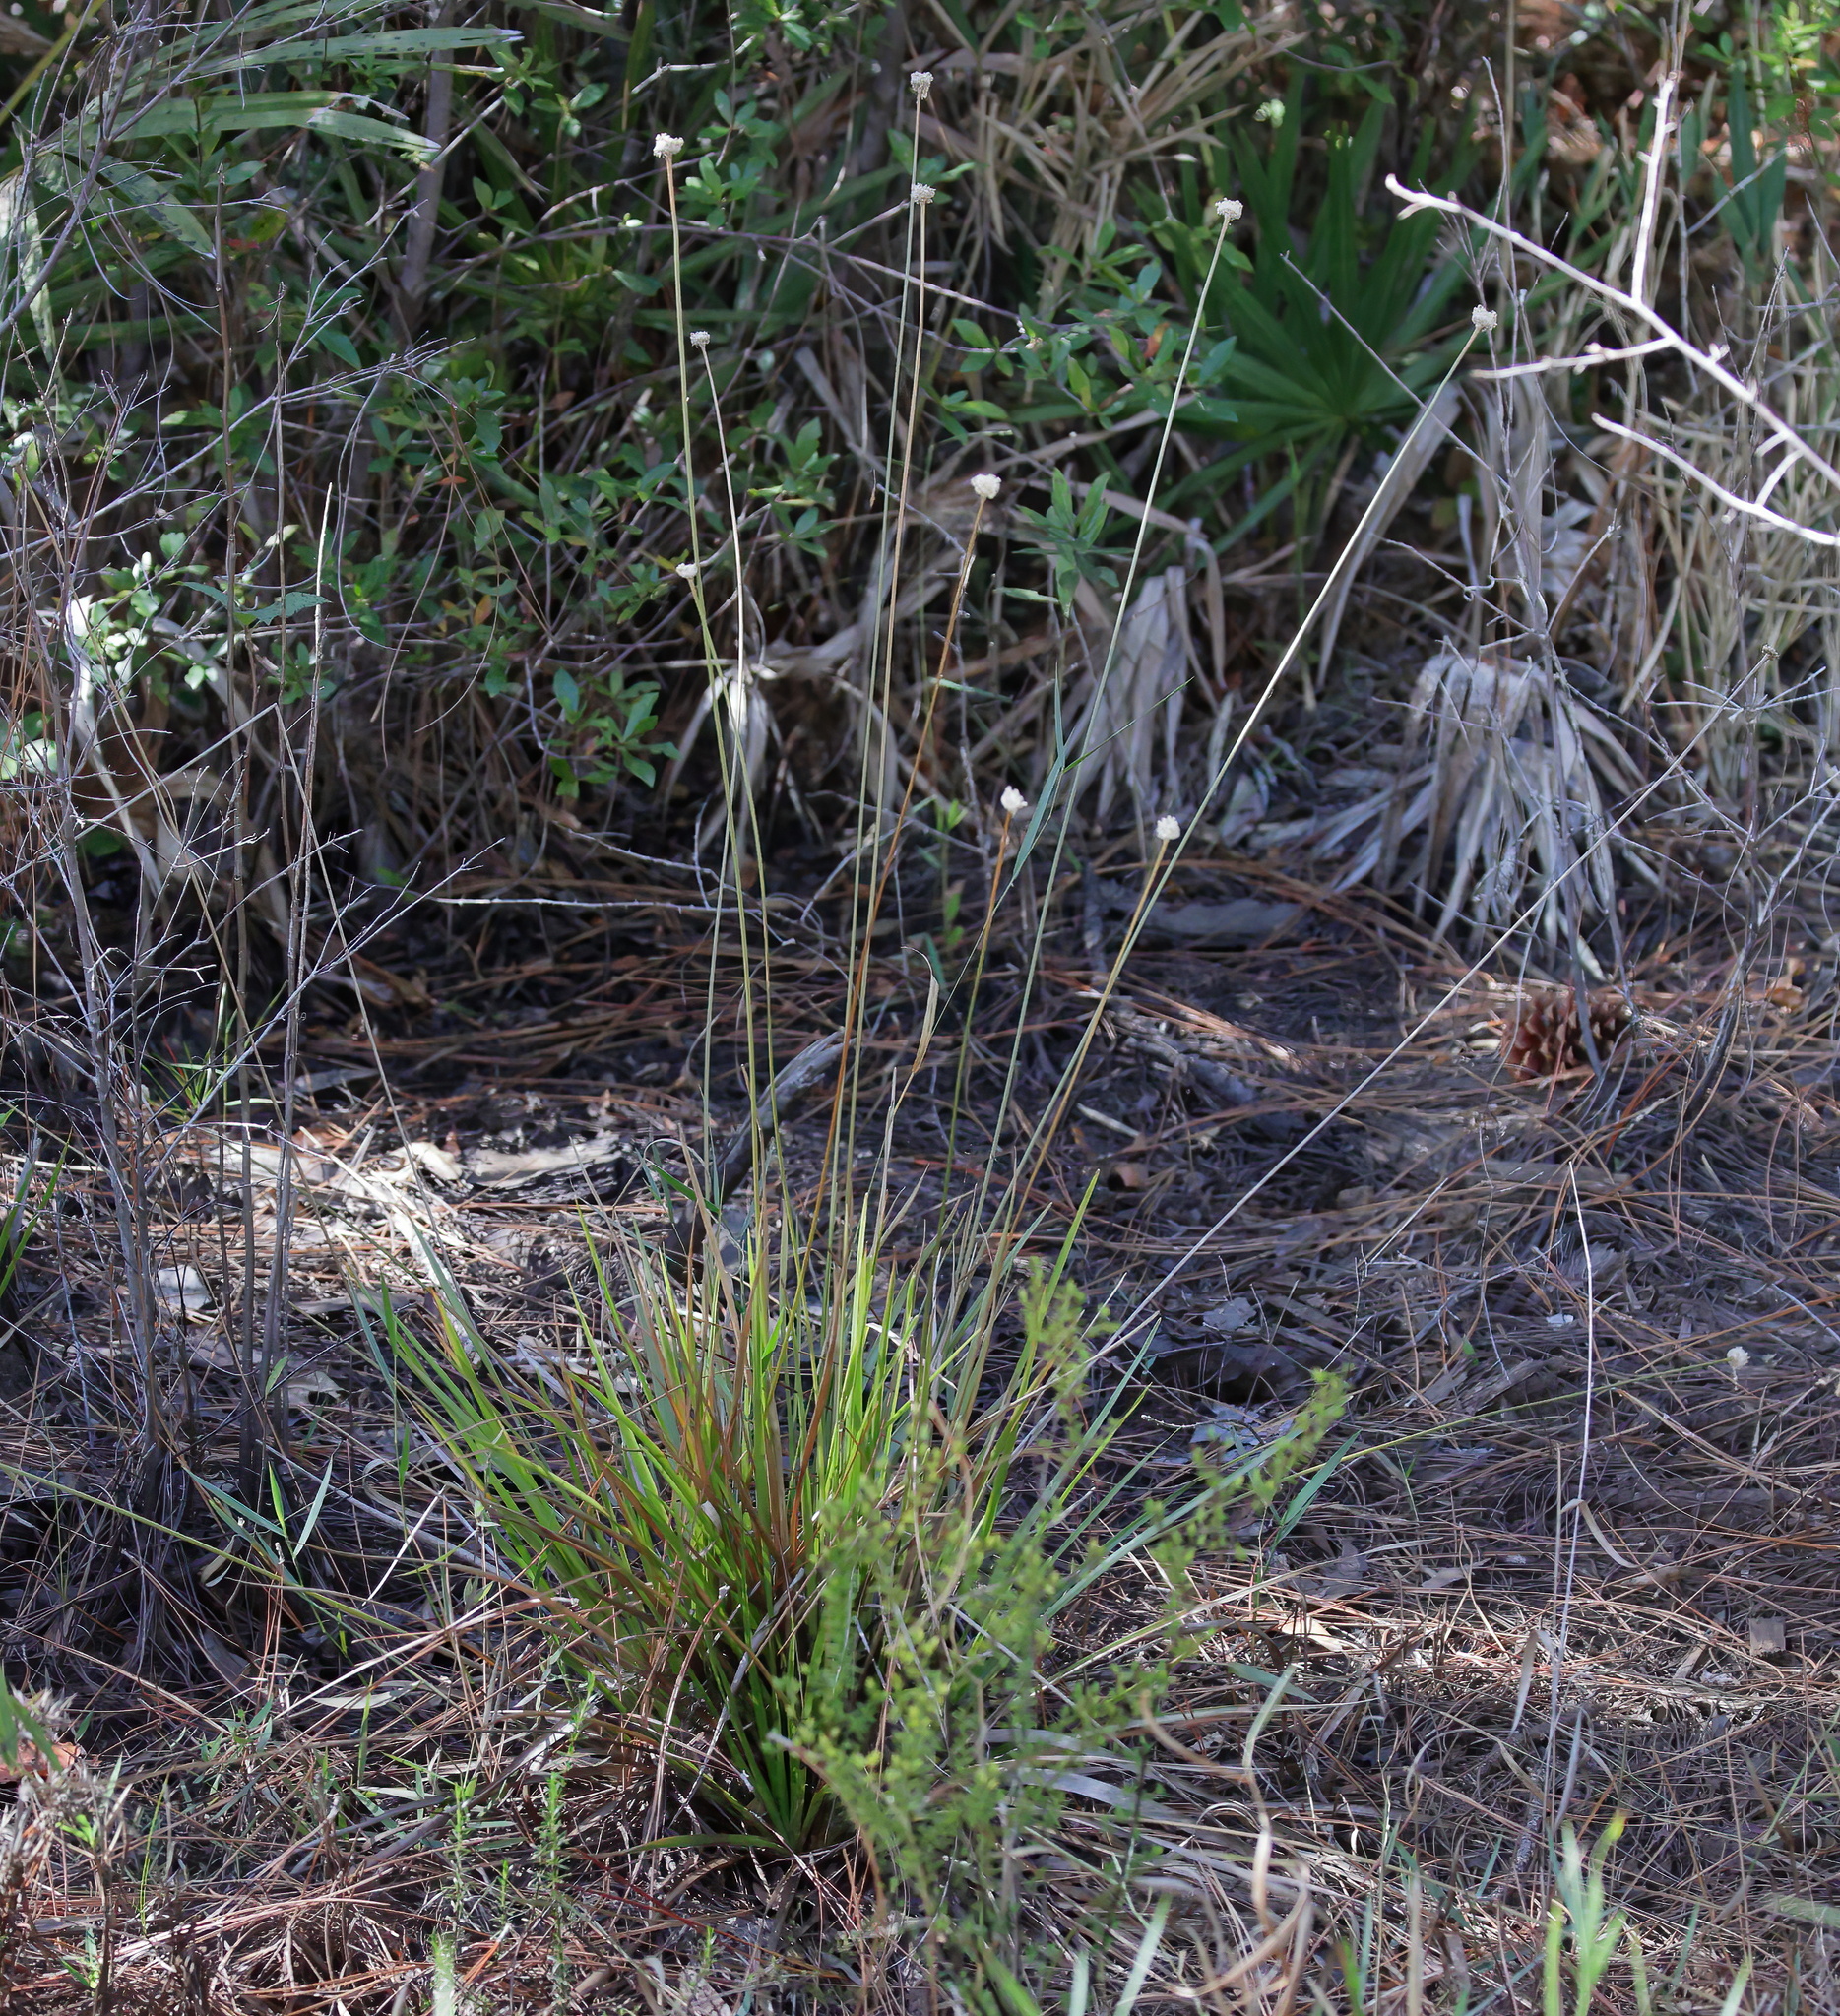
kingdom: Plantae
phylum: Tracheophyta
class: Liliopsida
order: Poales
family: Eriocaulaceae
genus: Eriocaulon
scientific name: Eriocaulon decangulare
